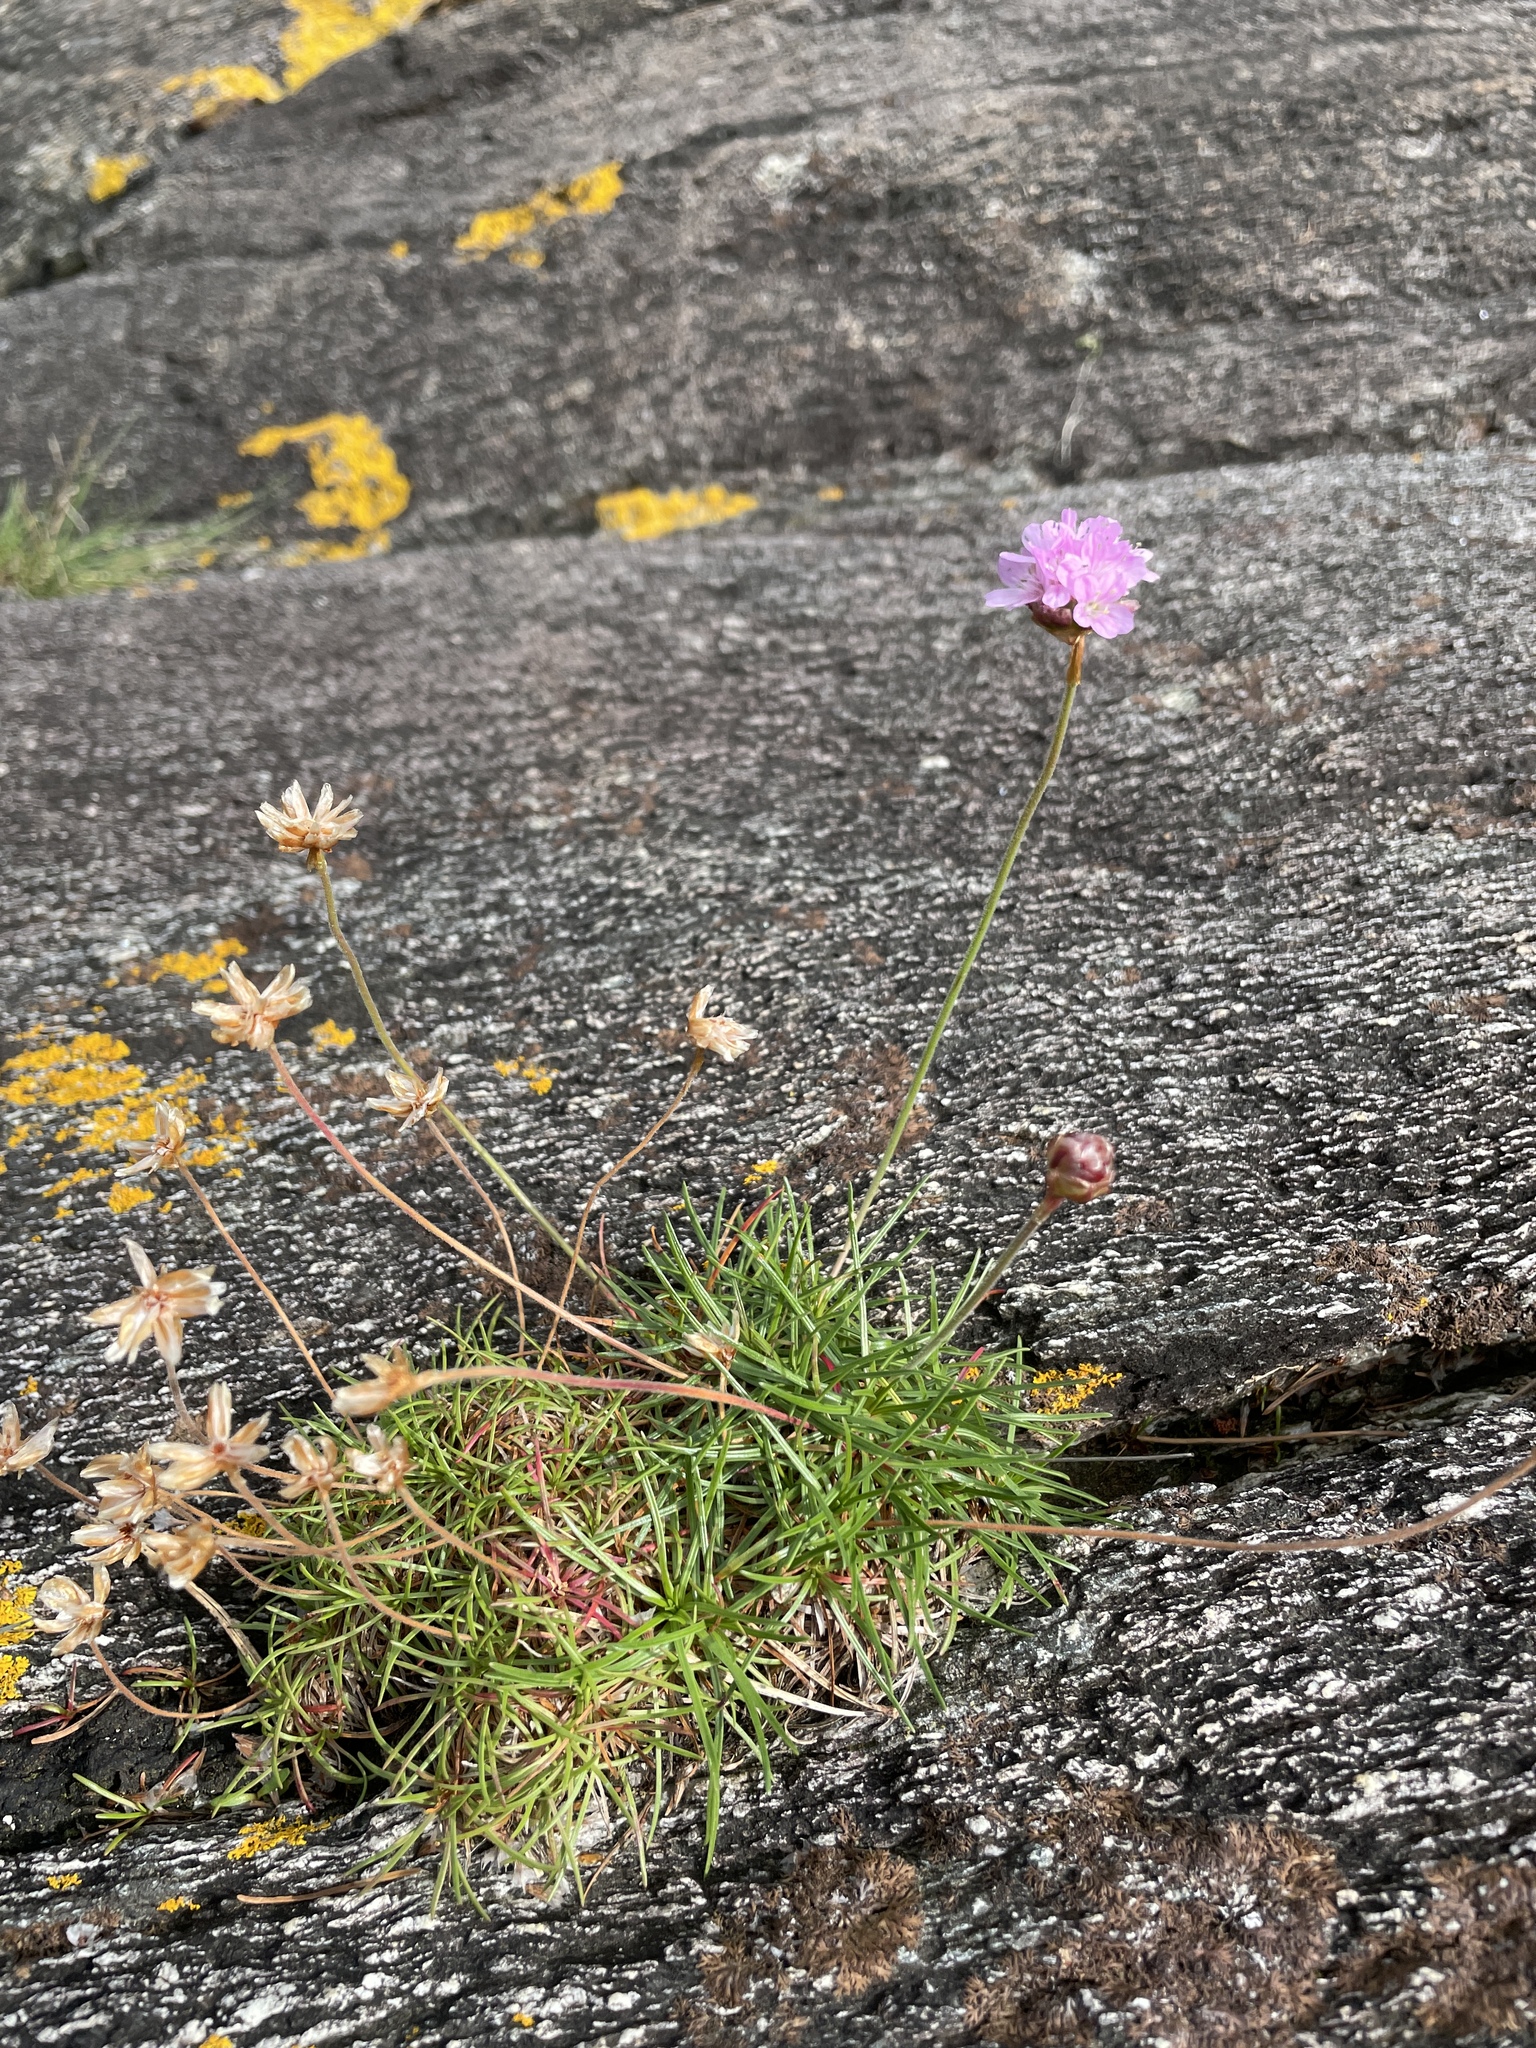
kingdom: Plantae
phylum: Tracheophyta
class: Magnoliopsida
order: Caryophyllales
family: Plumbaginaceae
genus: Armeria
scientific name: Armeria maritima
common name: Thrift
